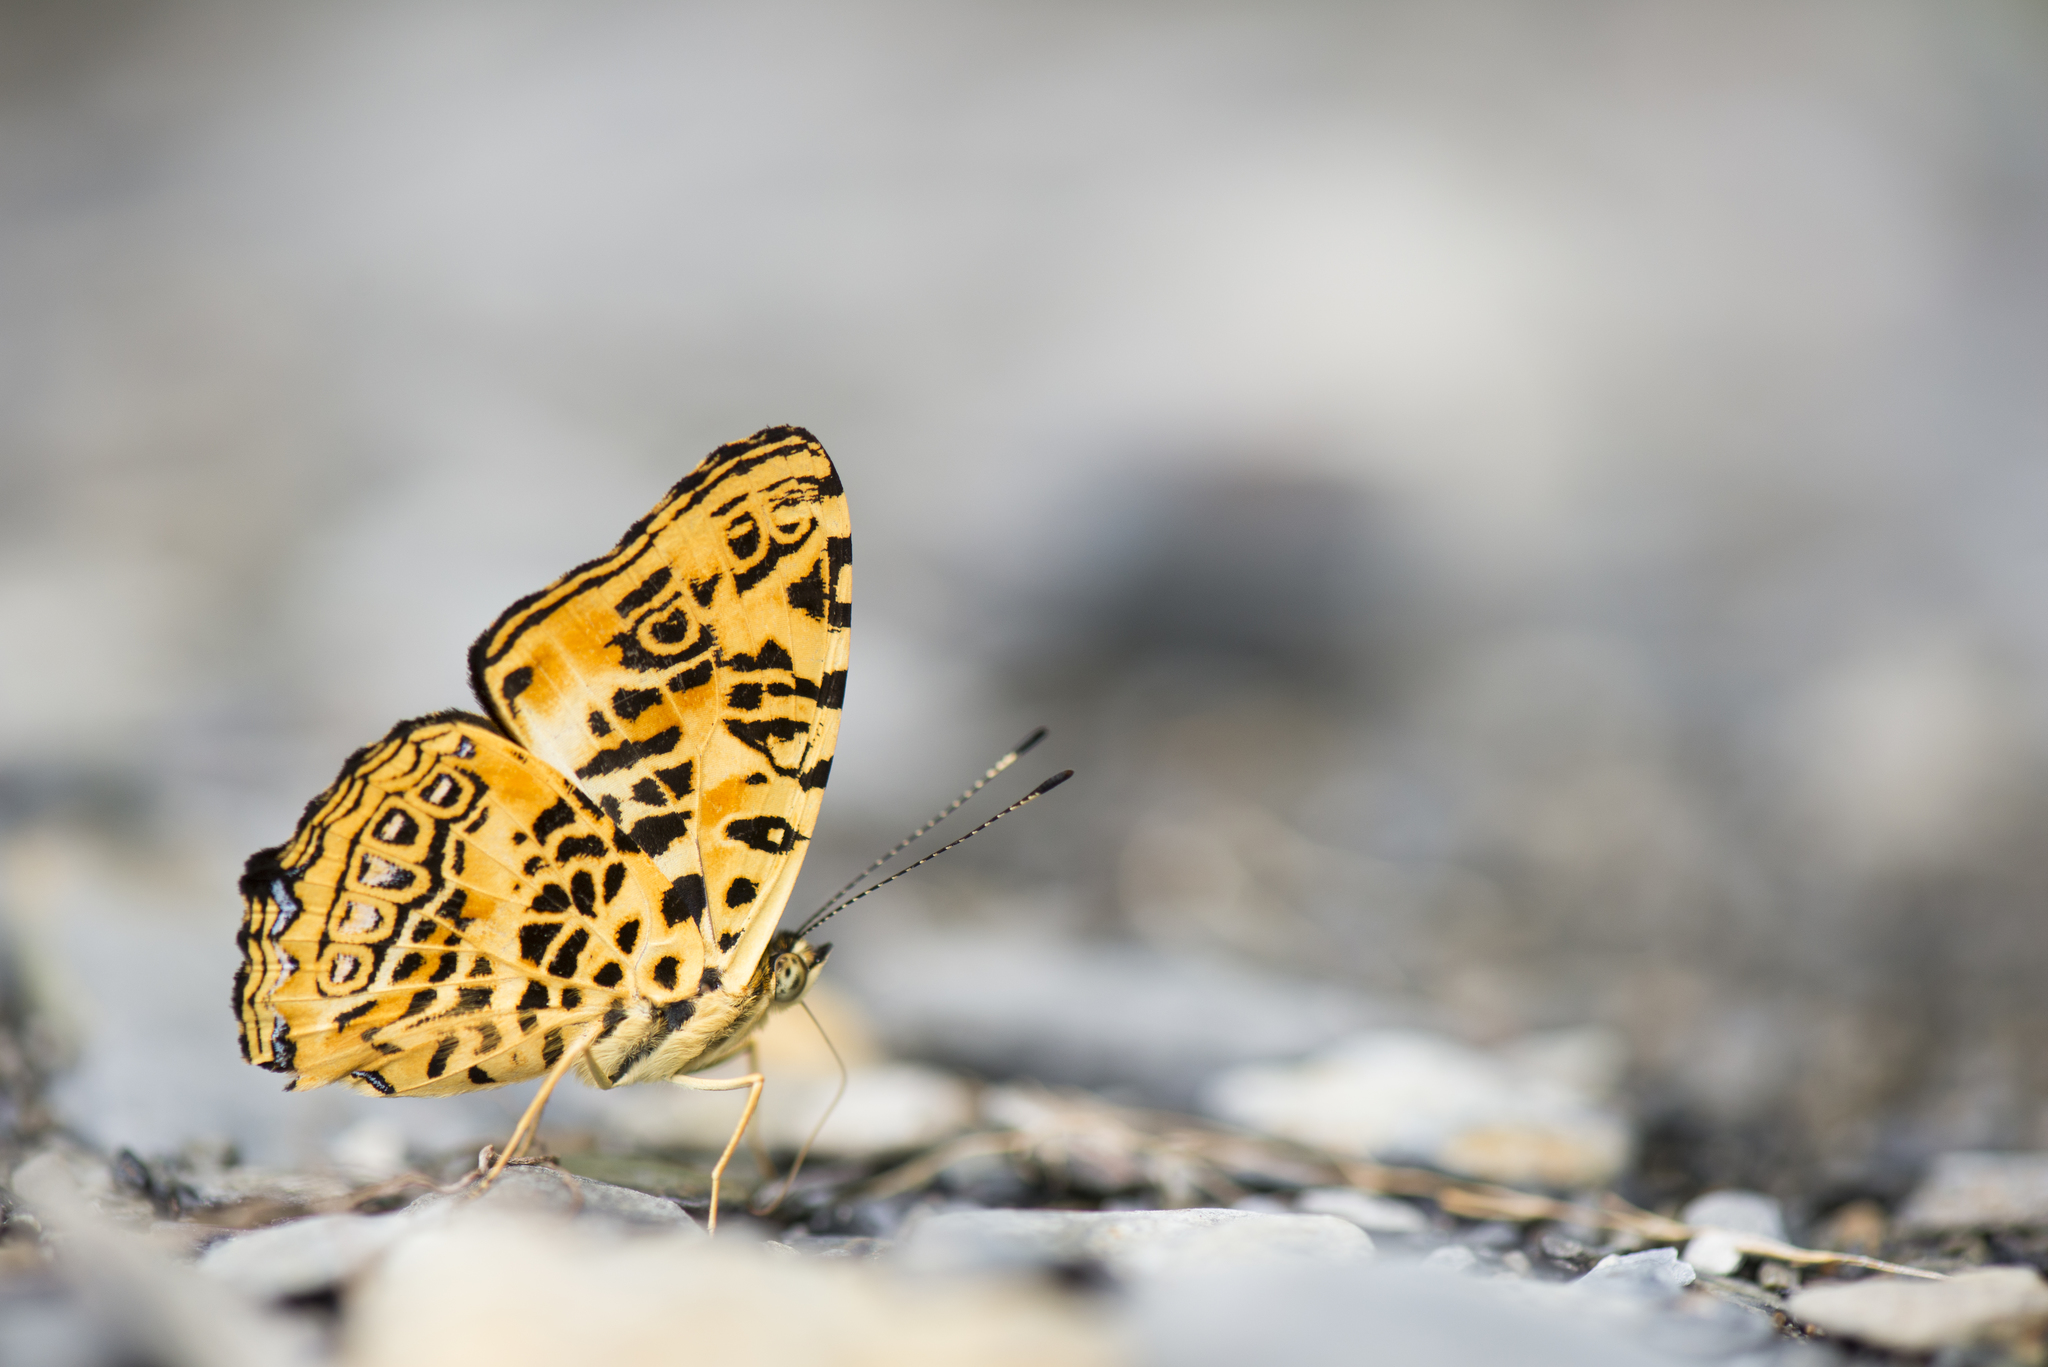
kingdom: Animalia
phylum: Arthropoda
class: Insecta
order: Lepidoptera
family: Nymphalidae
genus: Symbrenthia
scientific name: Symbrenthia brabira
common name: Yellow jester
